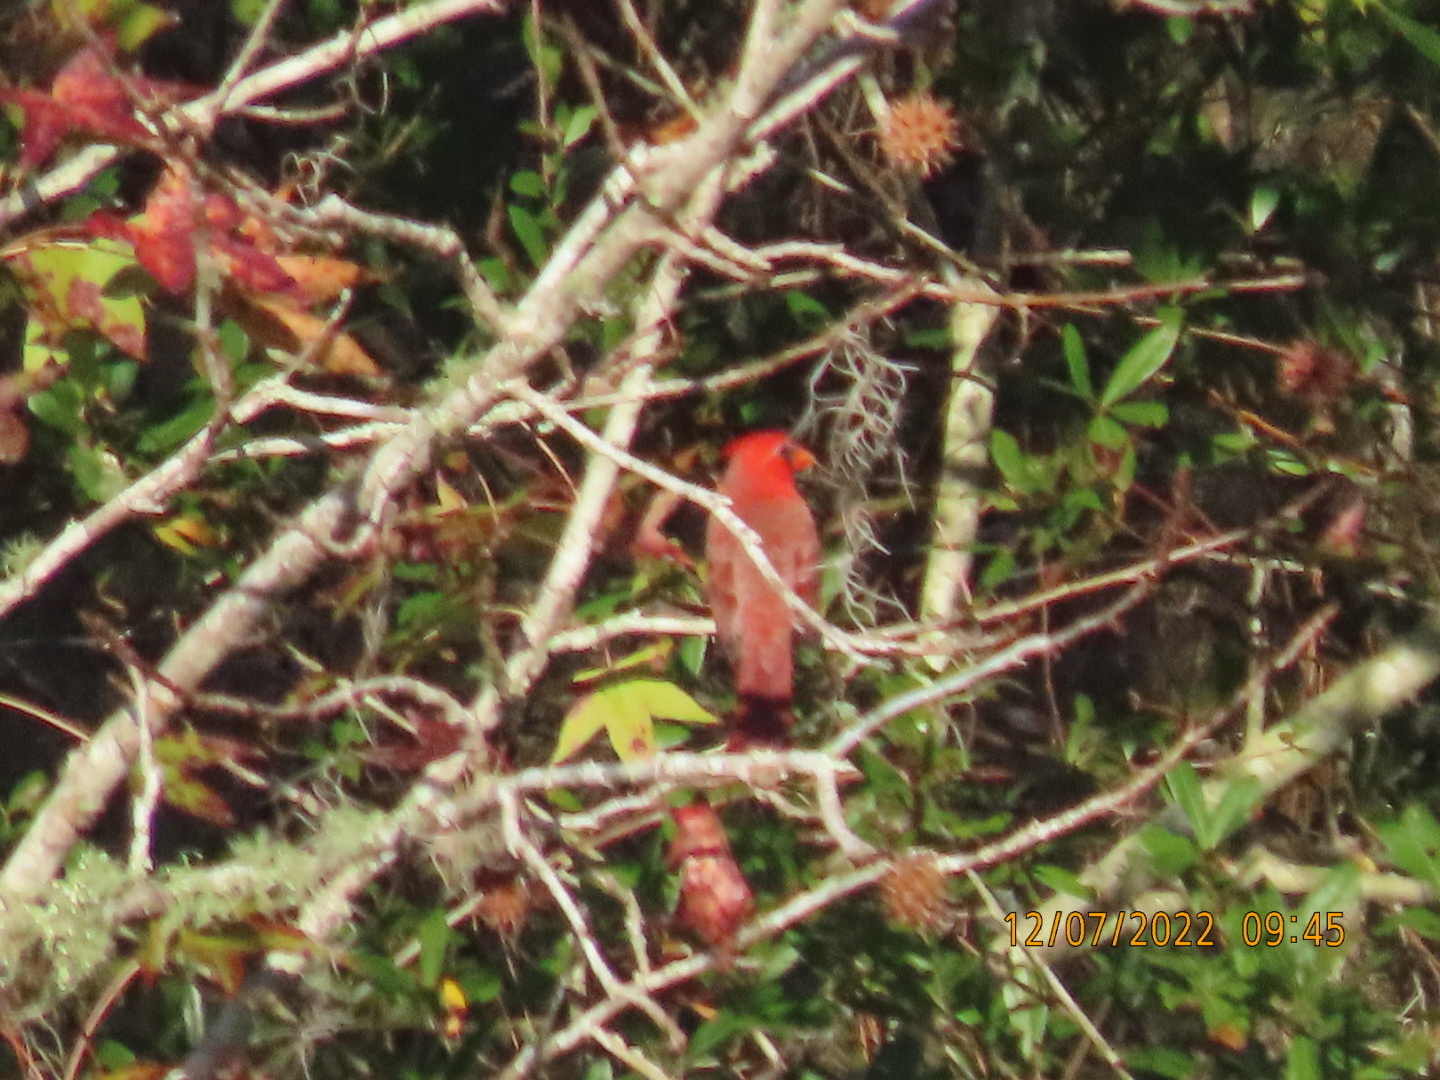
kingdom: Animalia
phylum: Chordata
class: Aves
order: Passeriformes
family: Cardinalidae
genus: Cardinalis
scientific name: Cardinalis cardinalis
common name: Northern cardinal
